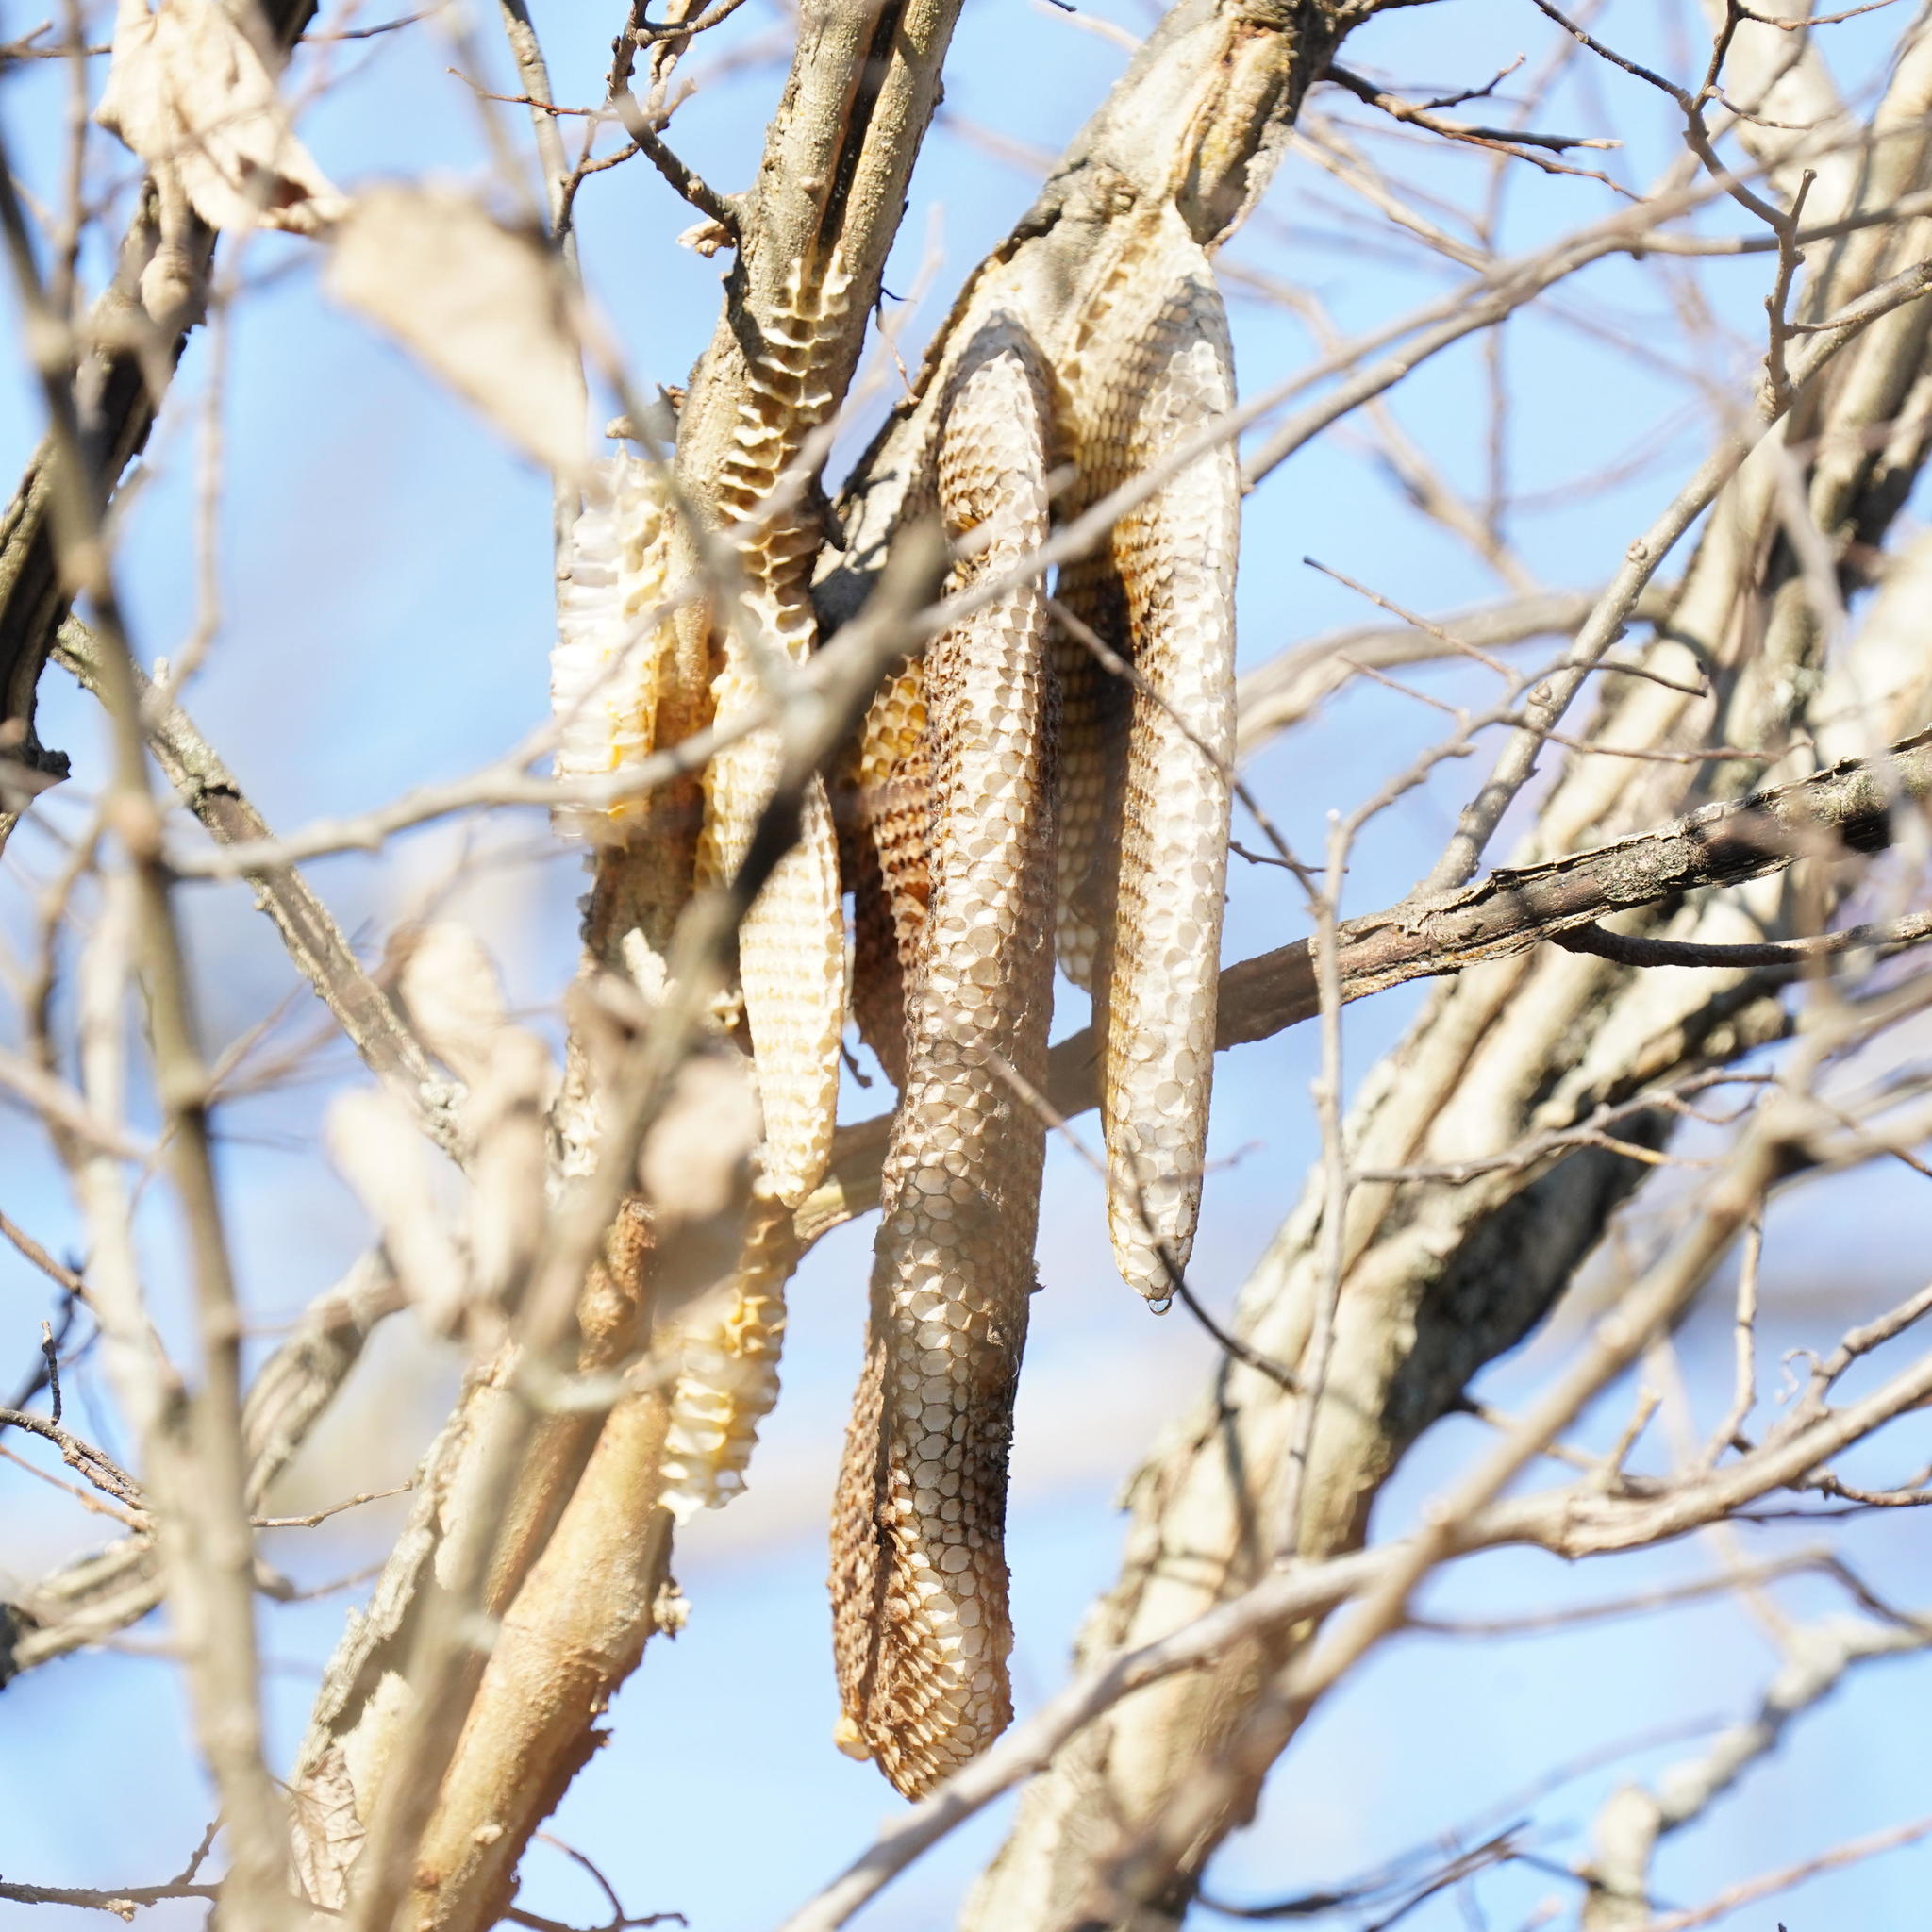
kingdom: Animalia
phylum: Arthropoda
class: Insecta
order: Hymenoptera
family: Apidae
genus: Apis
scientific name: Apis mellifera
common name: Honey bee
